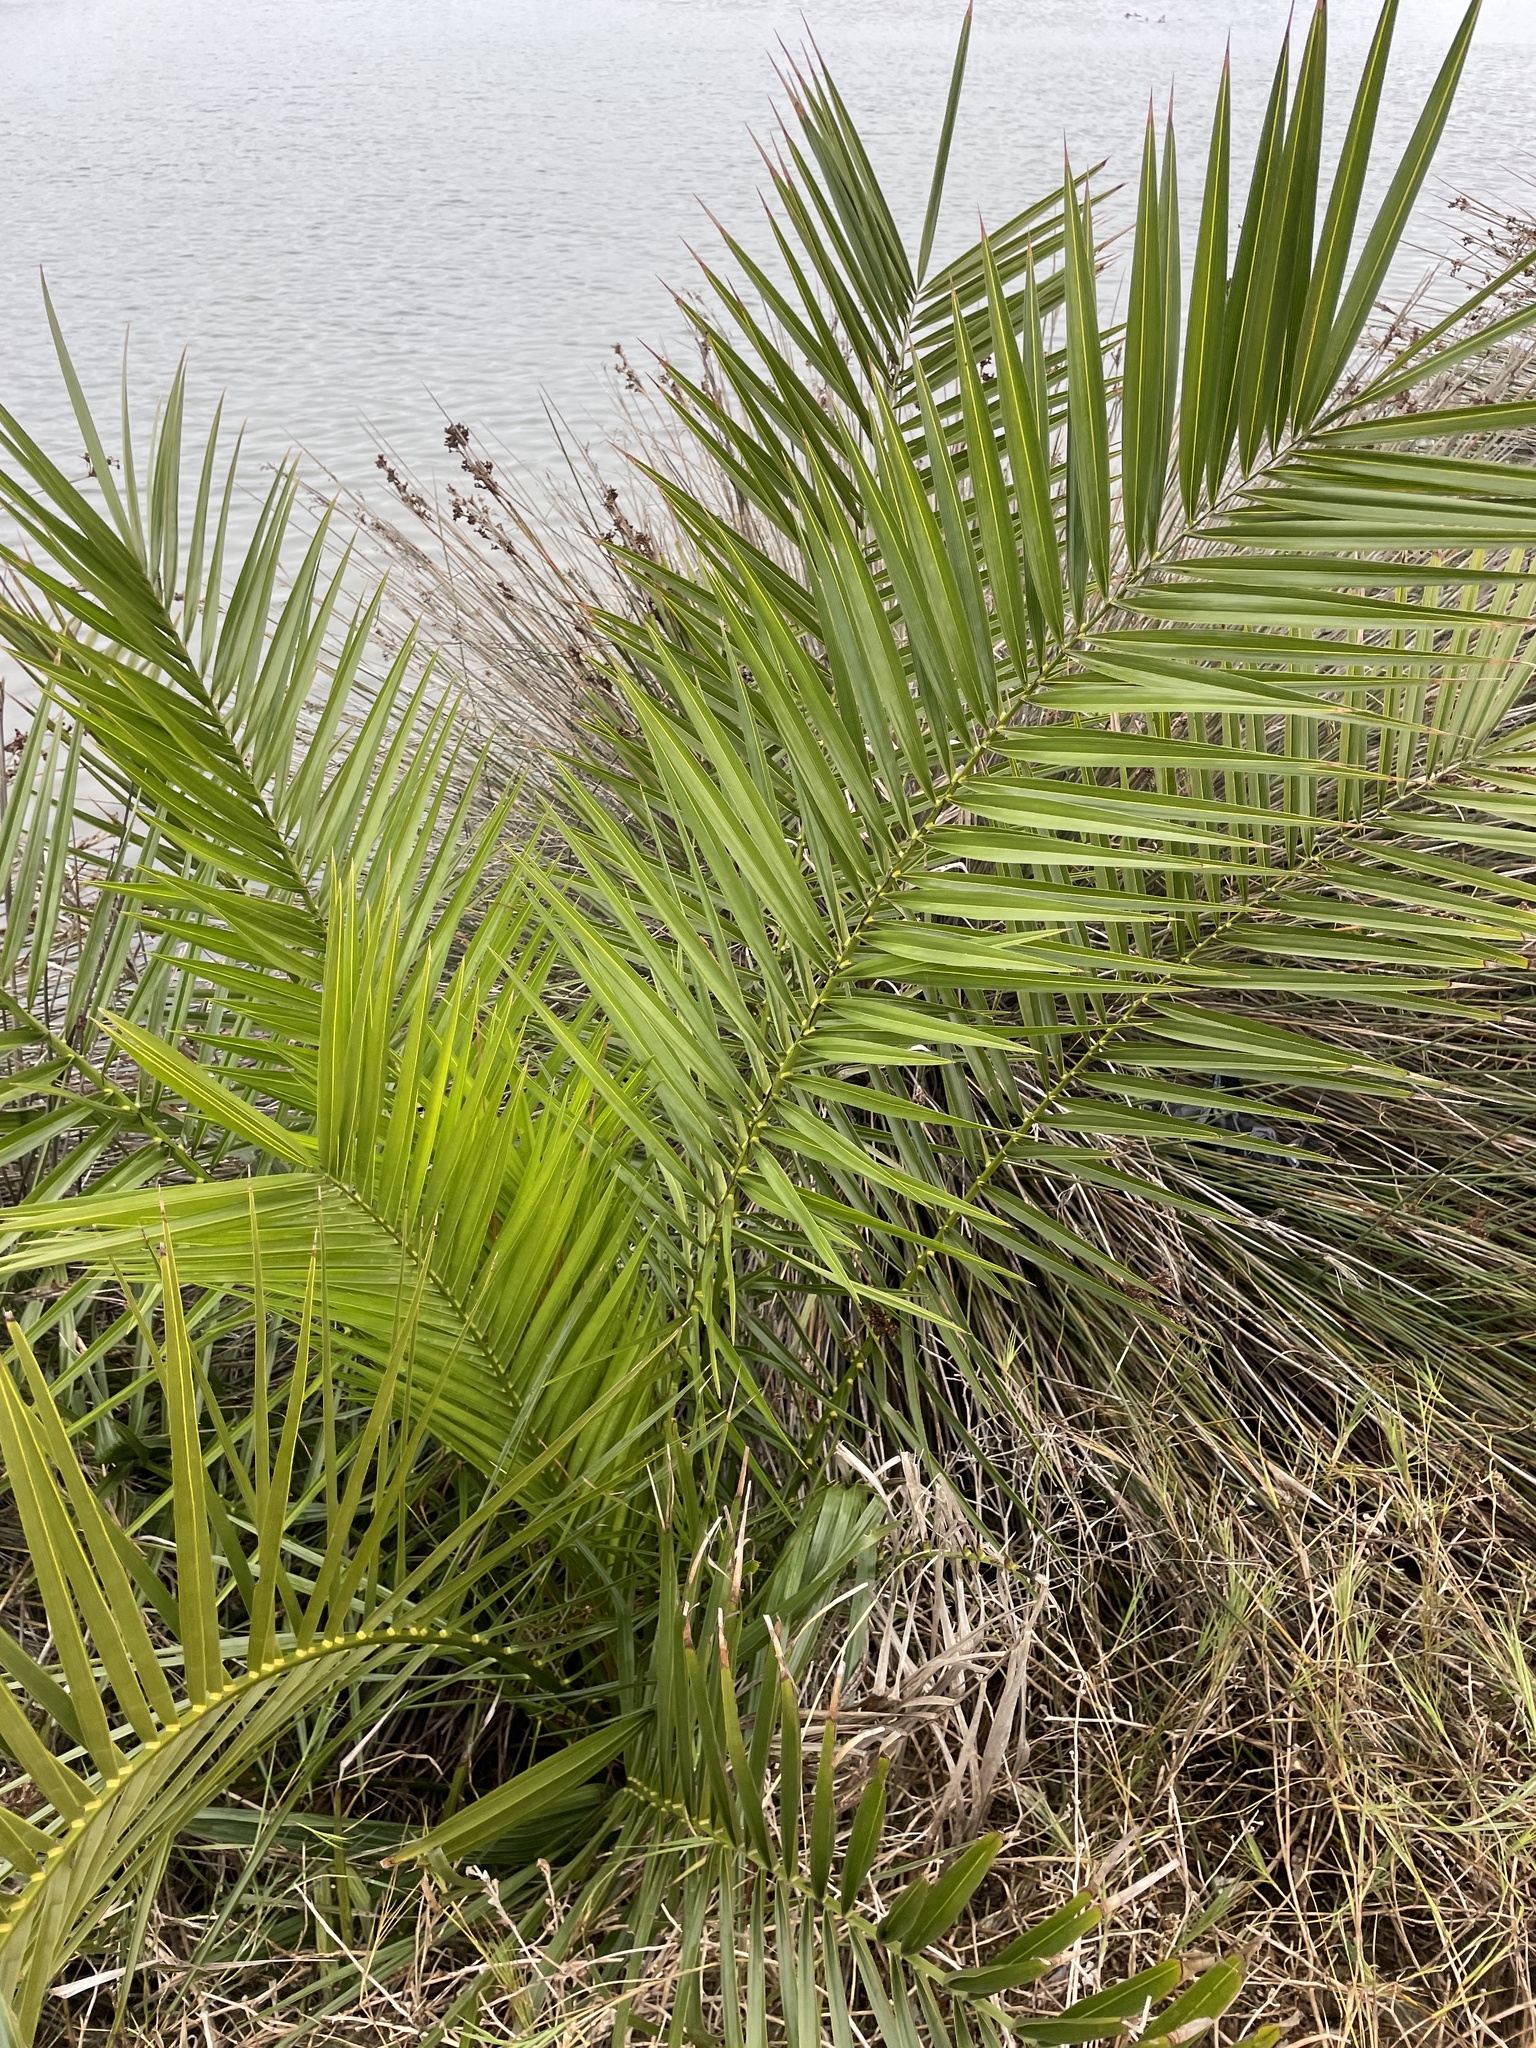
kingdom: Plantae
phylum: Tracheophyta
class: Liliopsida
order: Arecales
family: Arecaceae
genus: Phoenix
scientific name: Phoenix canariensis
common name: Canary island date palm
